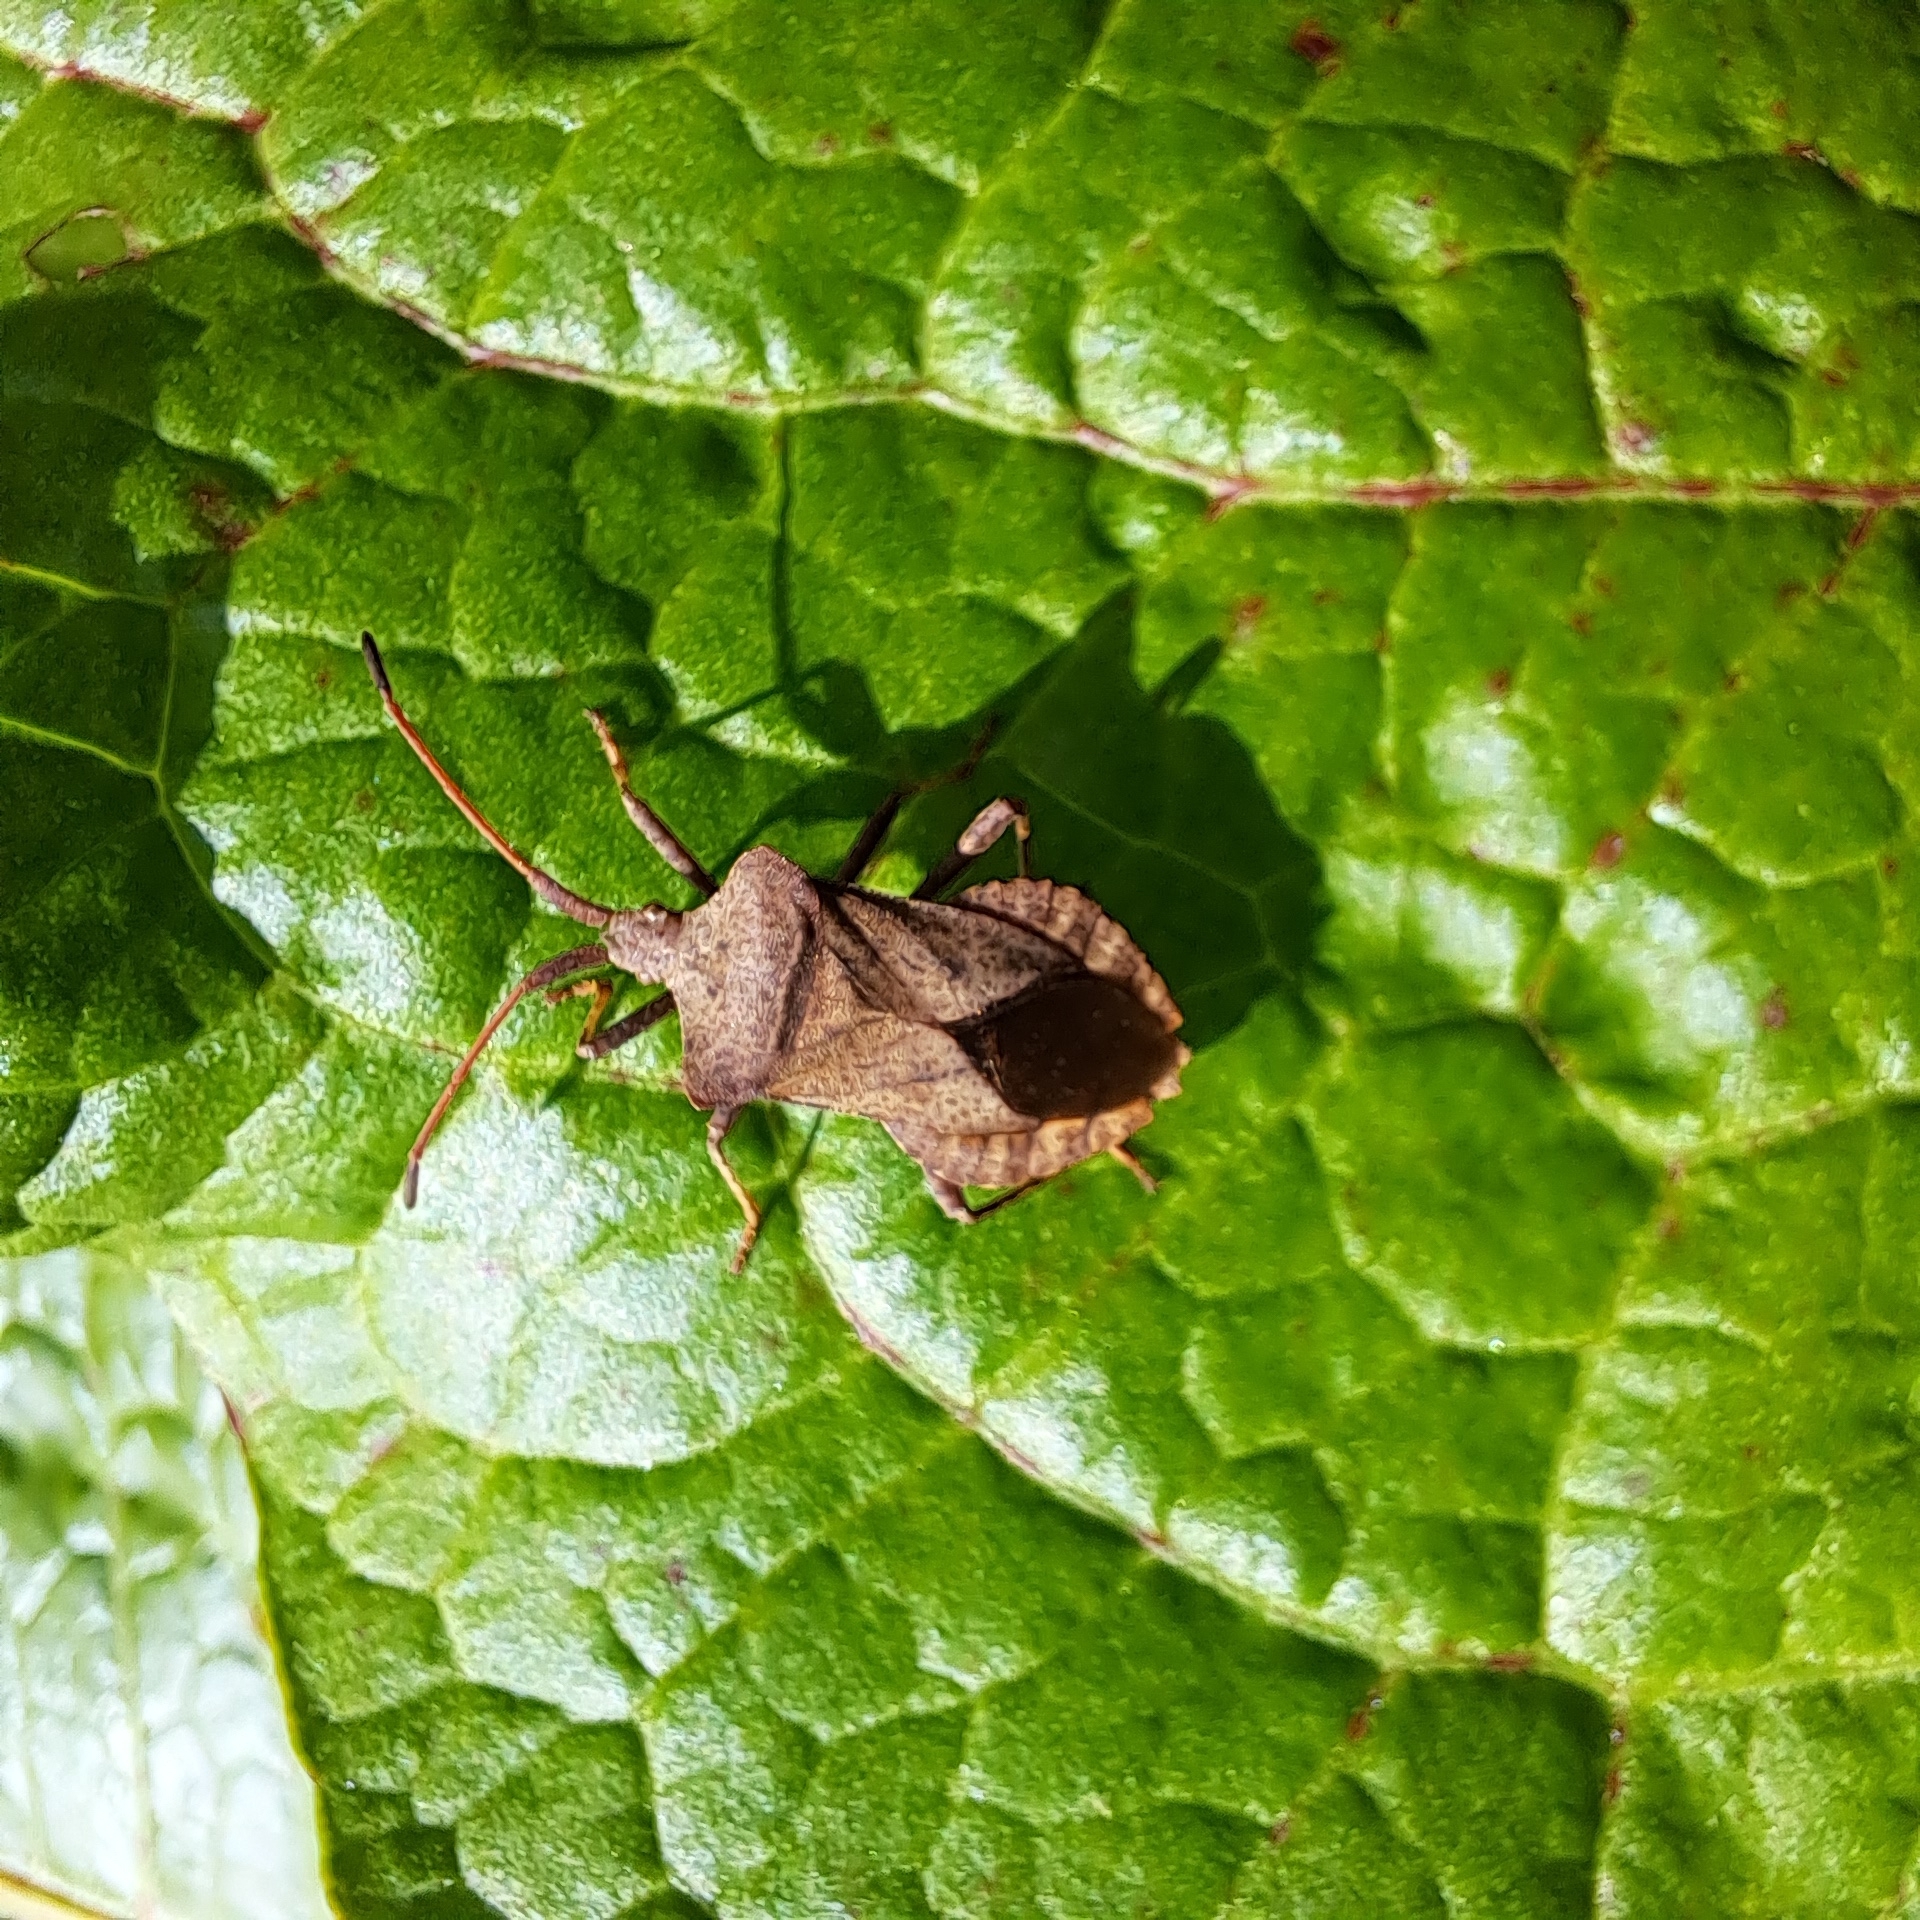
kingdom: Animalia
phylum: Arthropoda
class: Insecta
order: Hemiptera
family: Coreidae
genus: Coreus
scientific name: Coreus marginatus
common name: Dock bug
